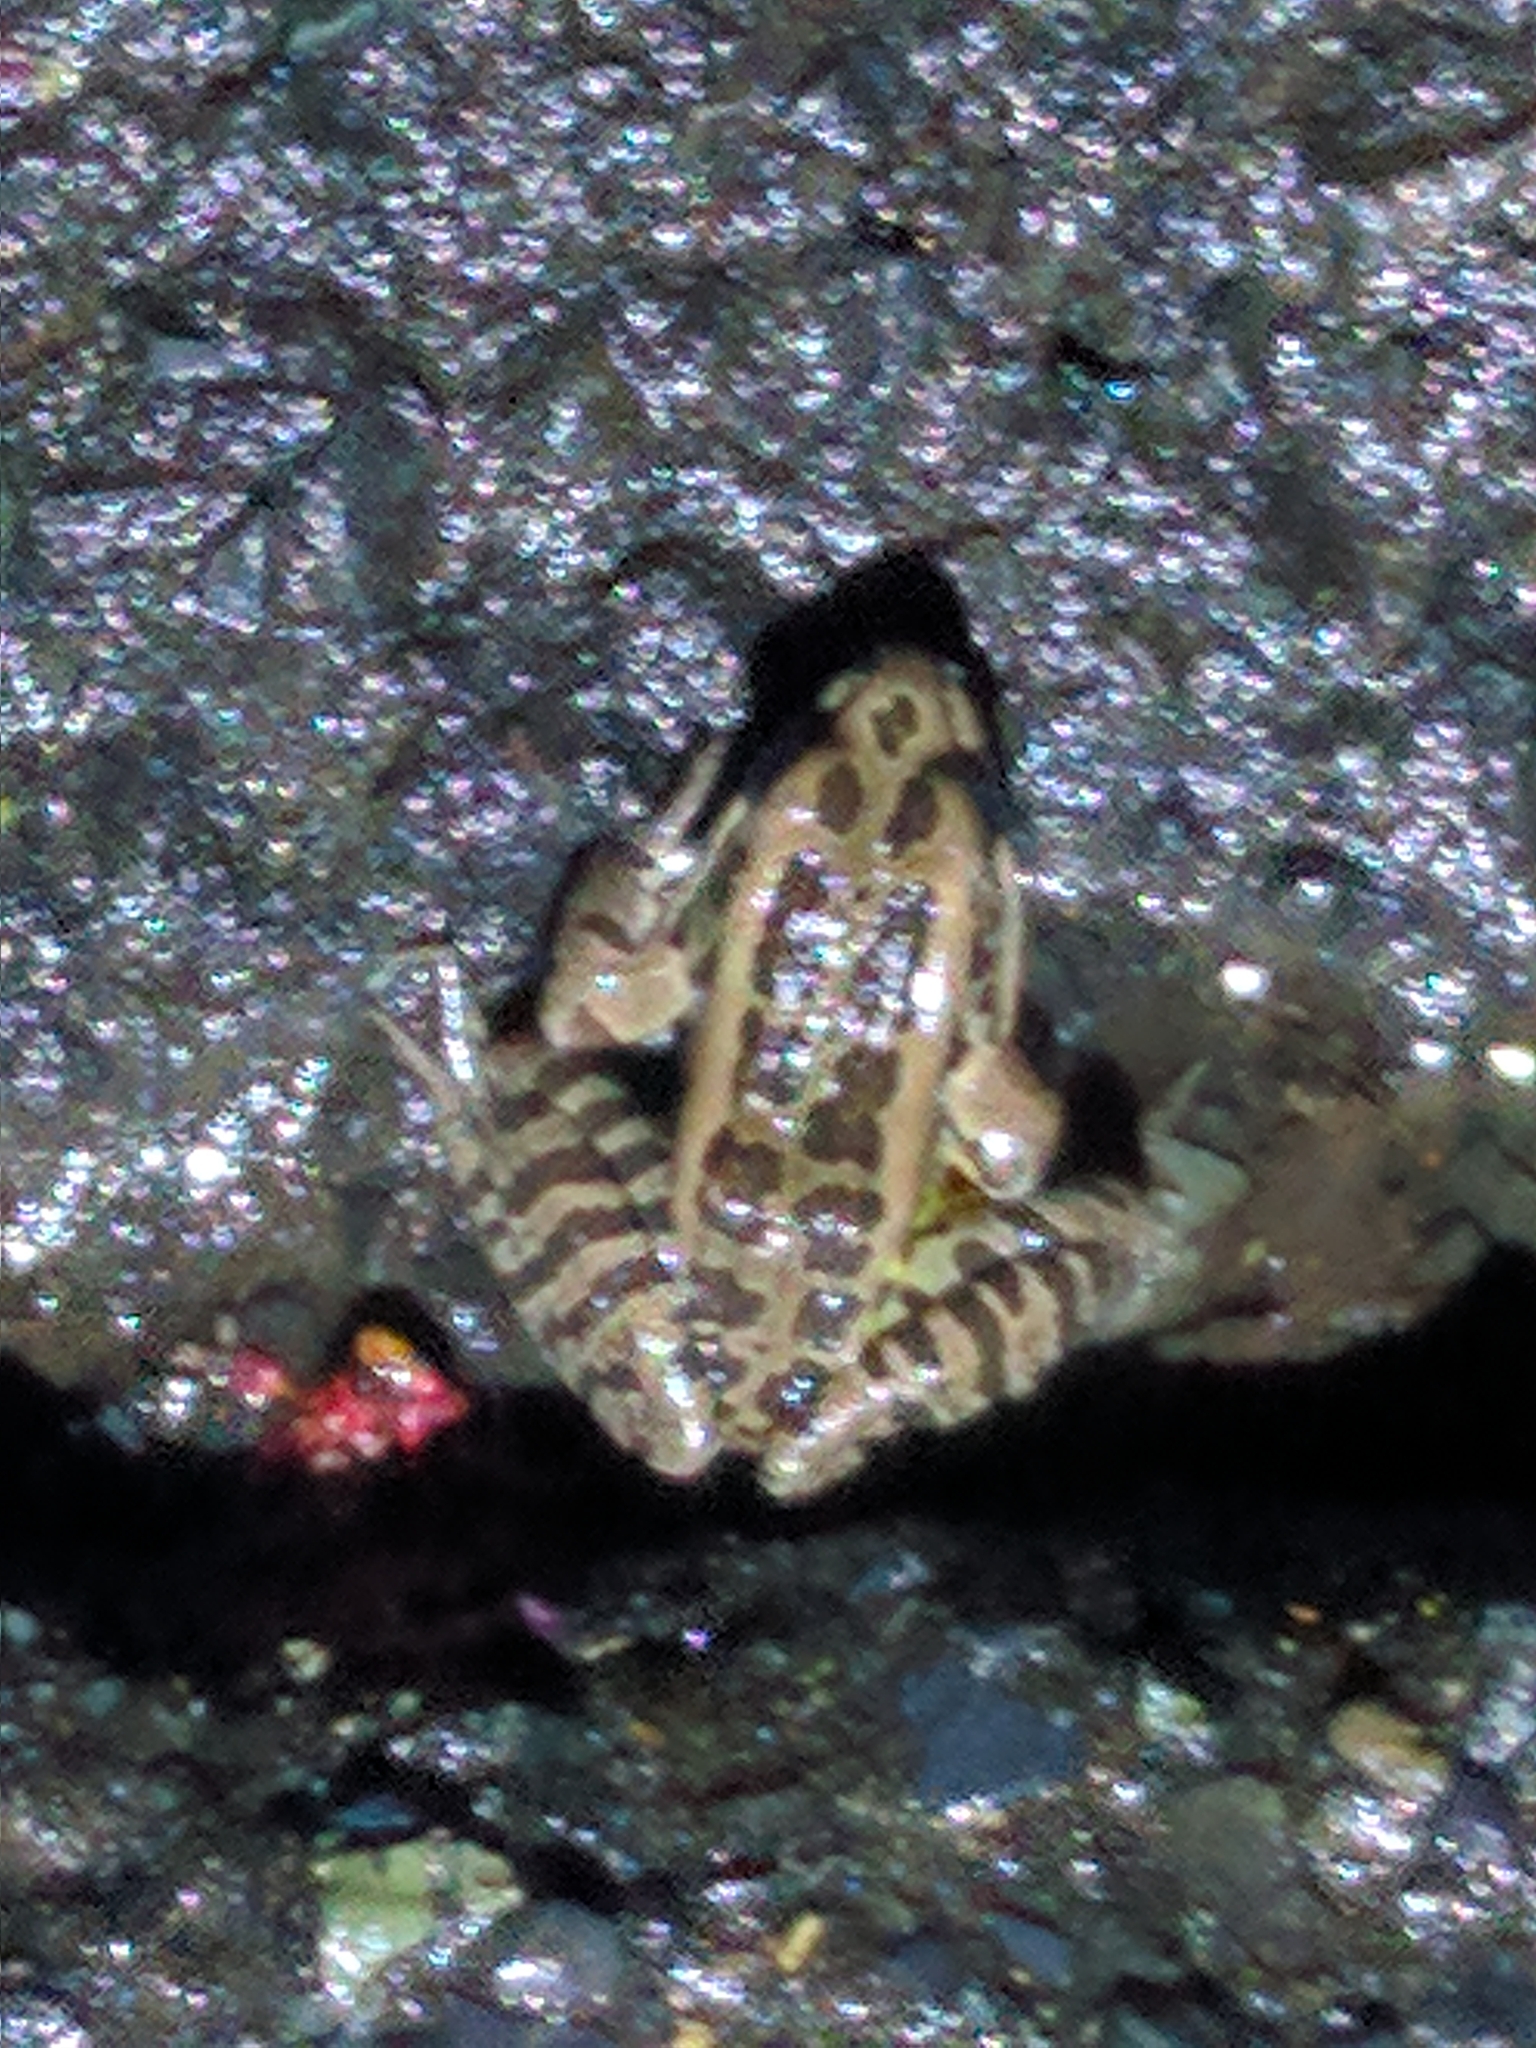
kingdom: Animalia
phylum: Chordata
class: Amphibia
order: Anura
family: Ranidae
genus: Lithobates
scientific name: Lithobates palustris
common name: Pickerel frog
